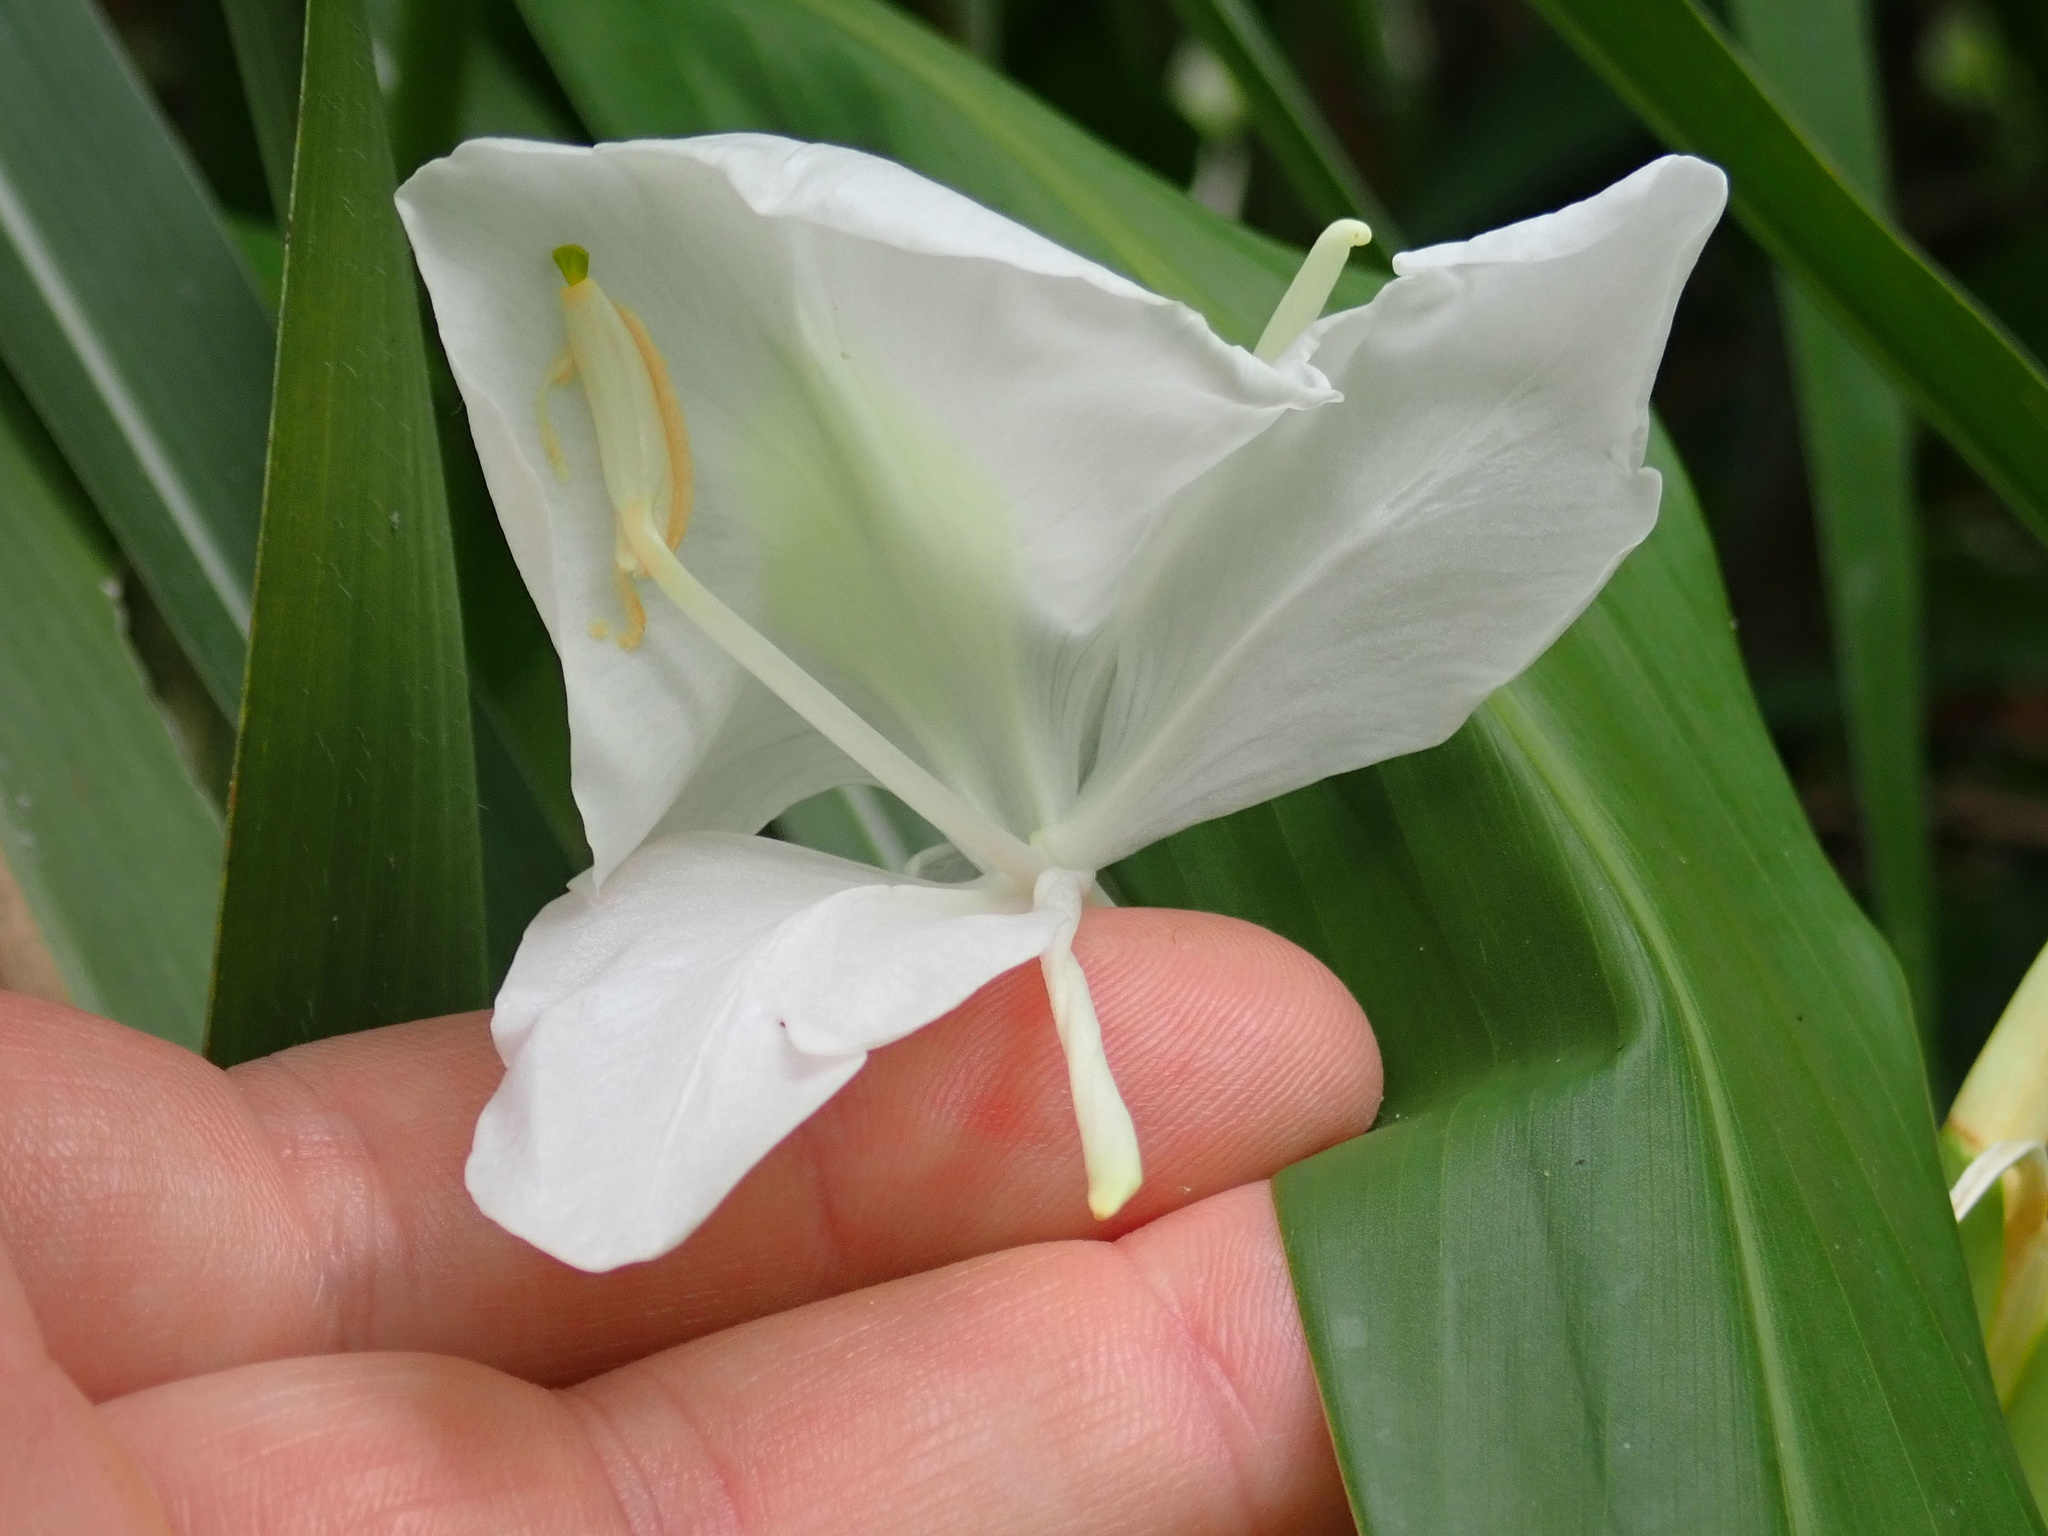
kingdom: Plantae
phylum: Tracheophyta
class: Liliopsida
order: Zingiberales
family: Zingiberaceae
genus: Hedychium
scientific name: Hedychium coronarium
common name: White garland-lily
